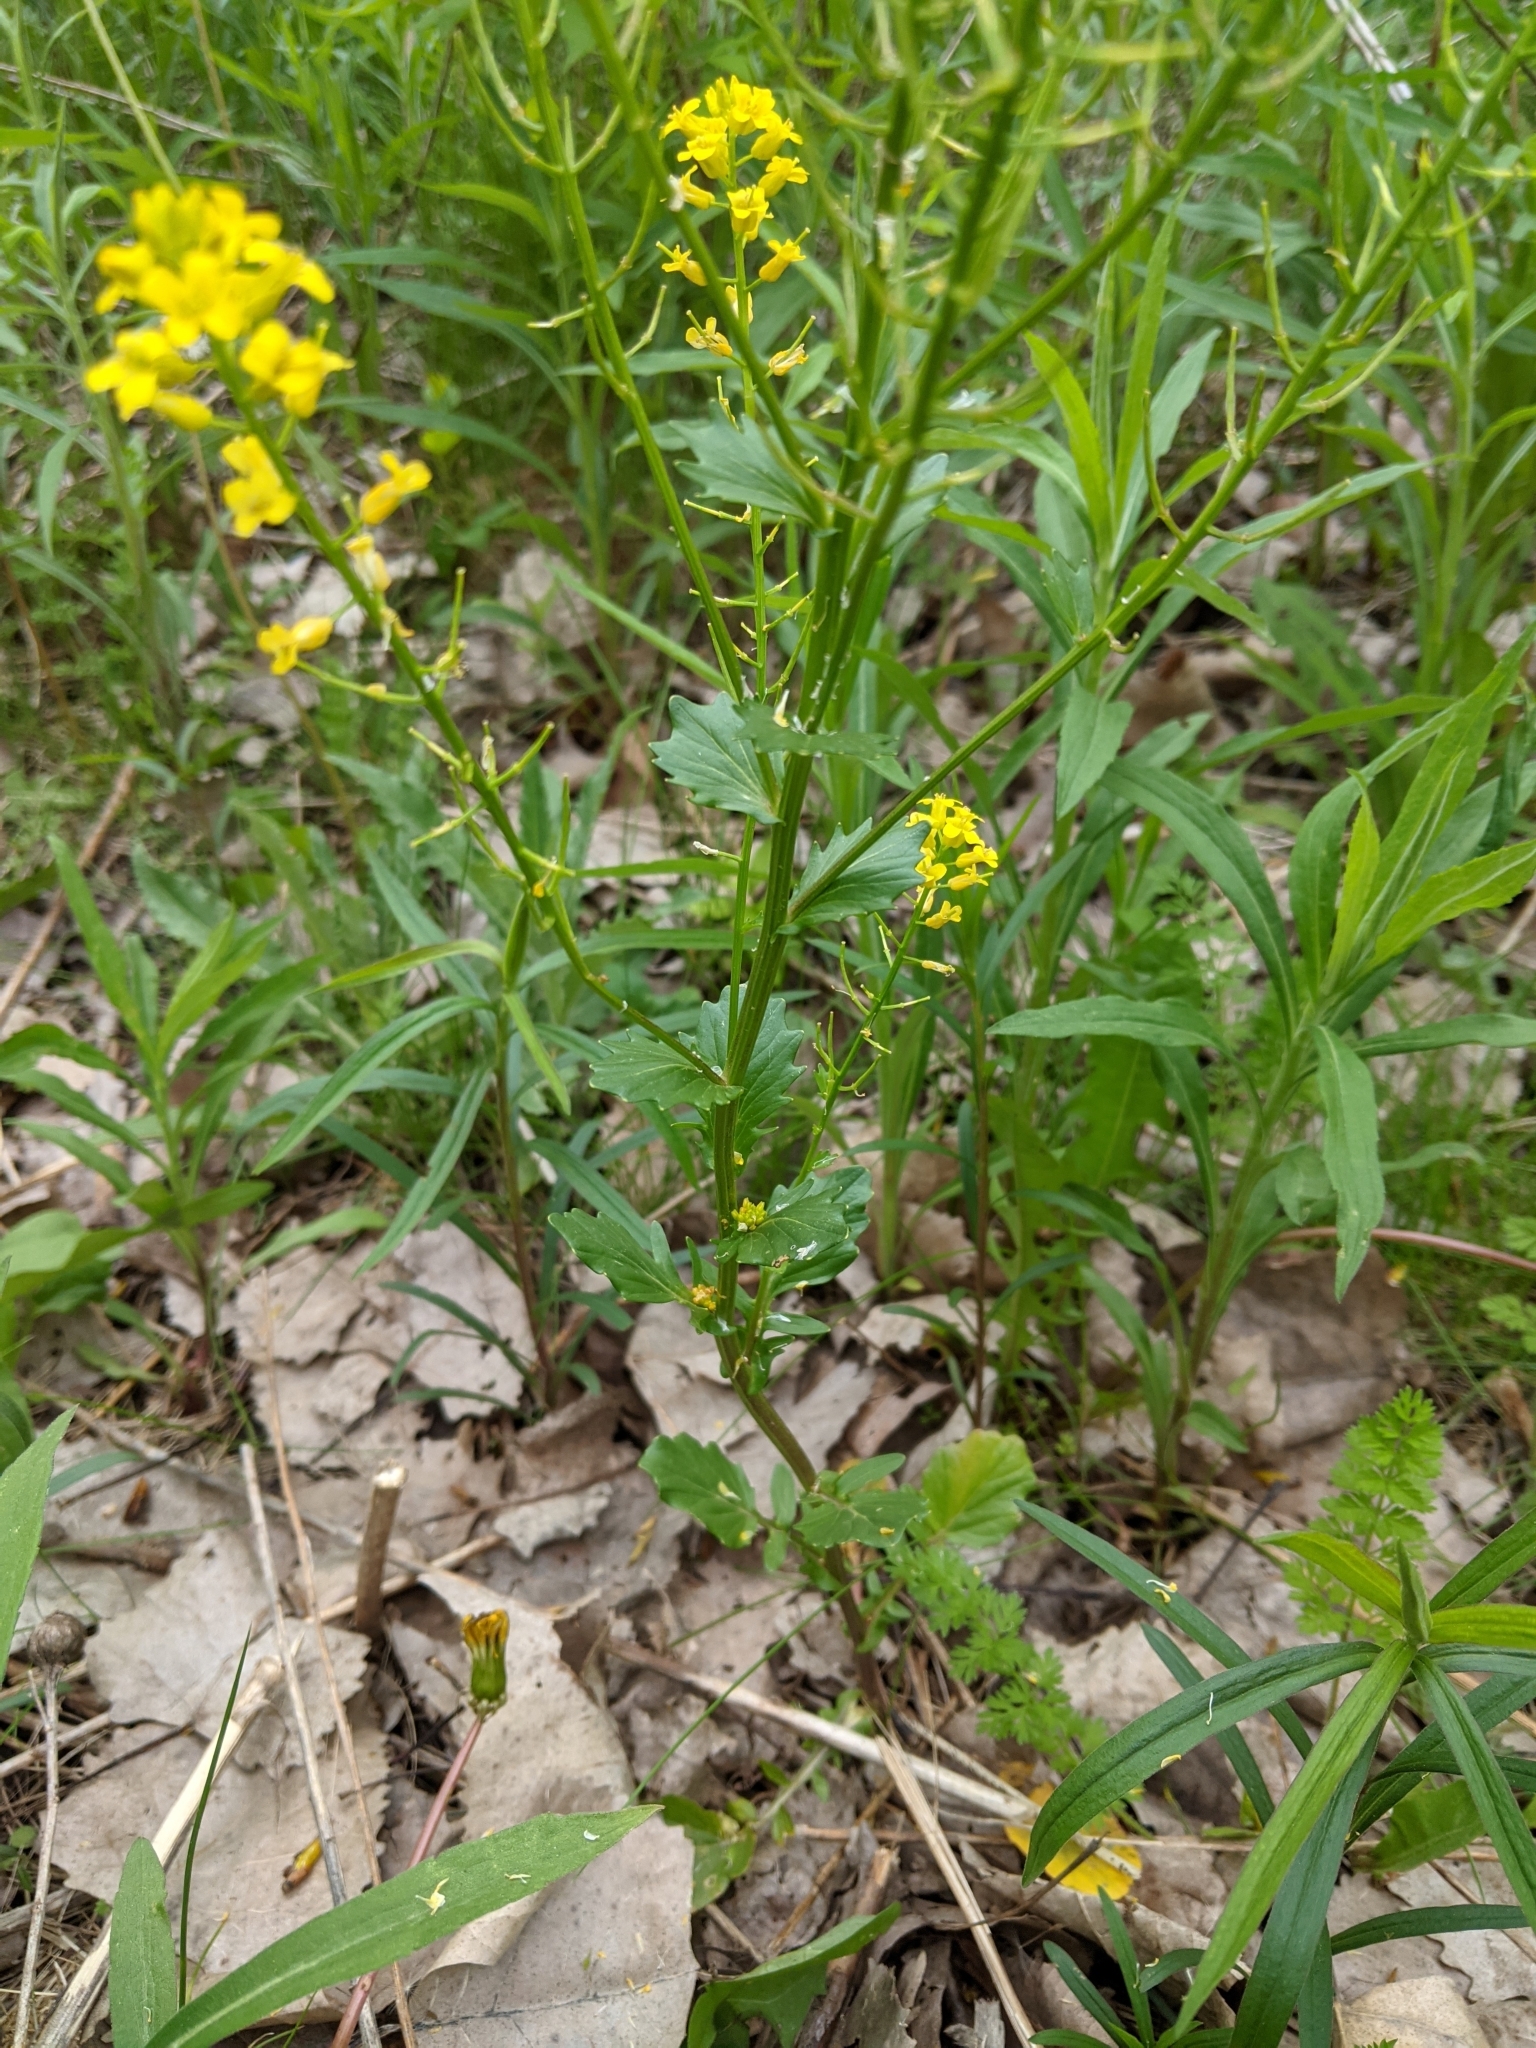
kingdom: Plantae
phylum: Tracheophyta
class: Magnoliopsida
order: Brassicales
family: Brassicaceae
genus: Barbarea
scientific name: Barbarea vulgaris
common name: Cressy-greens
